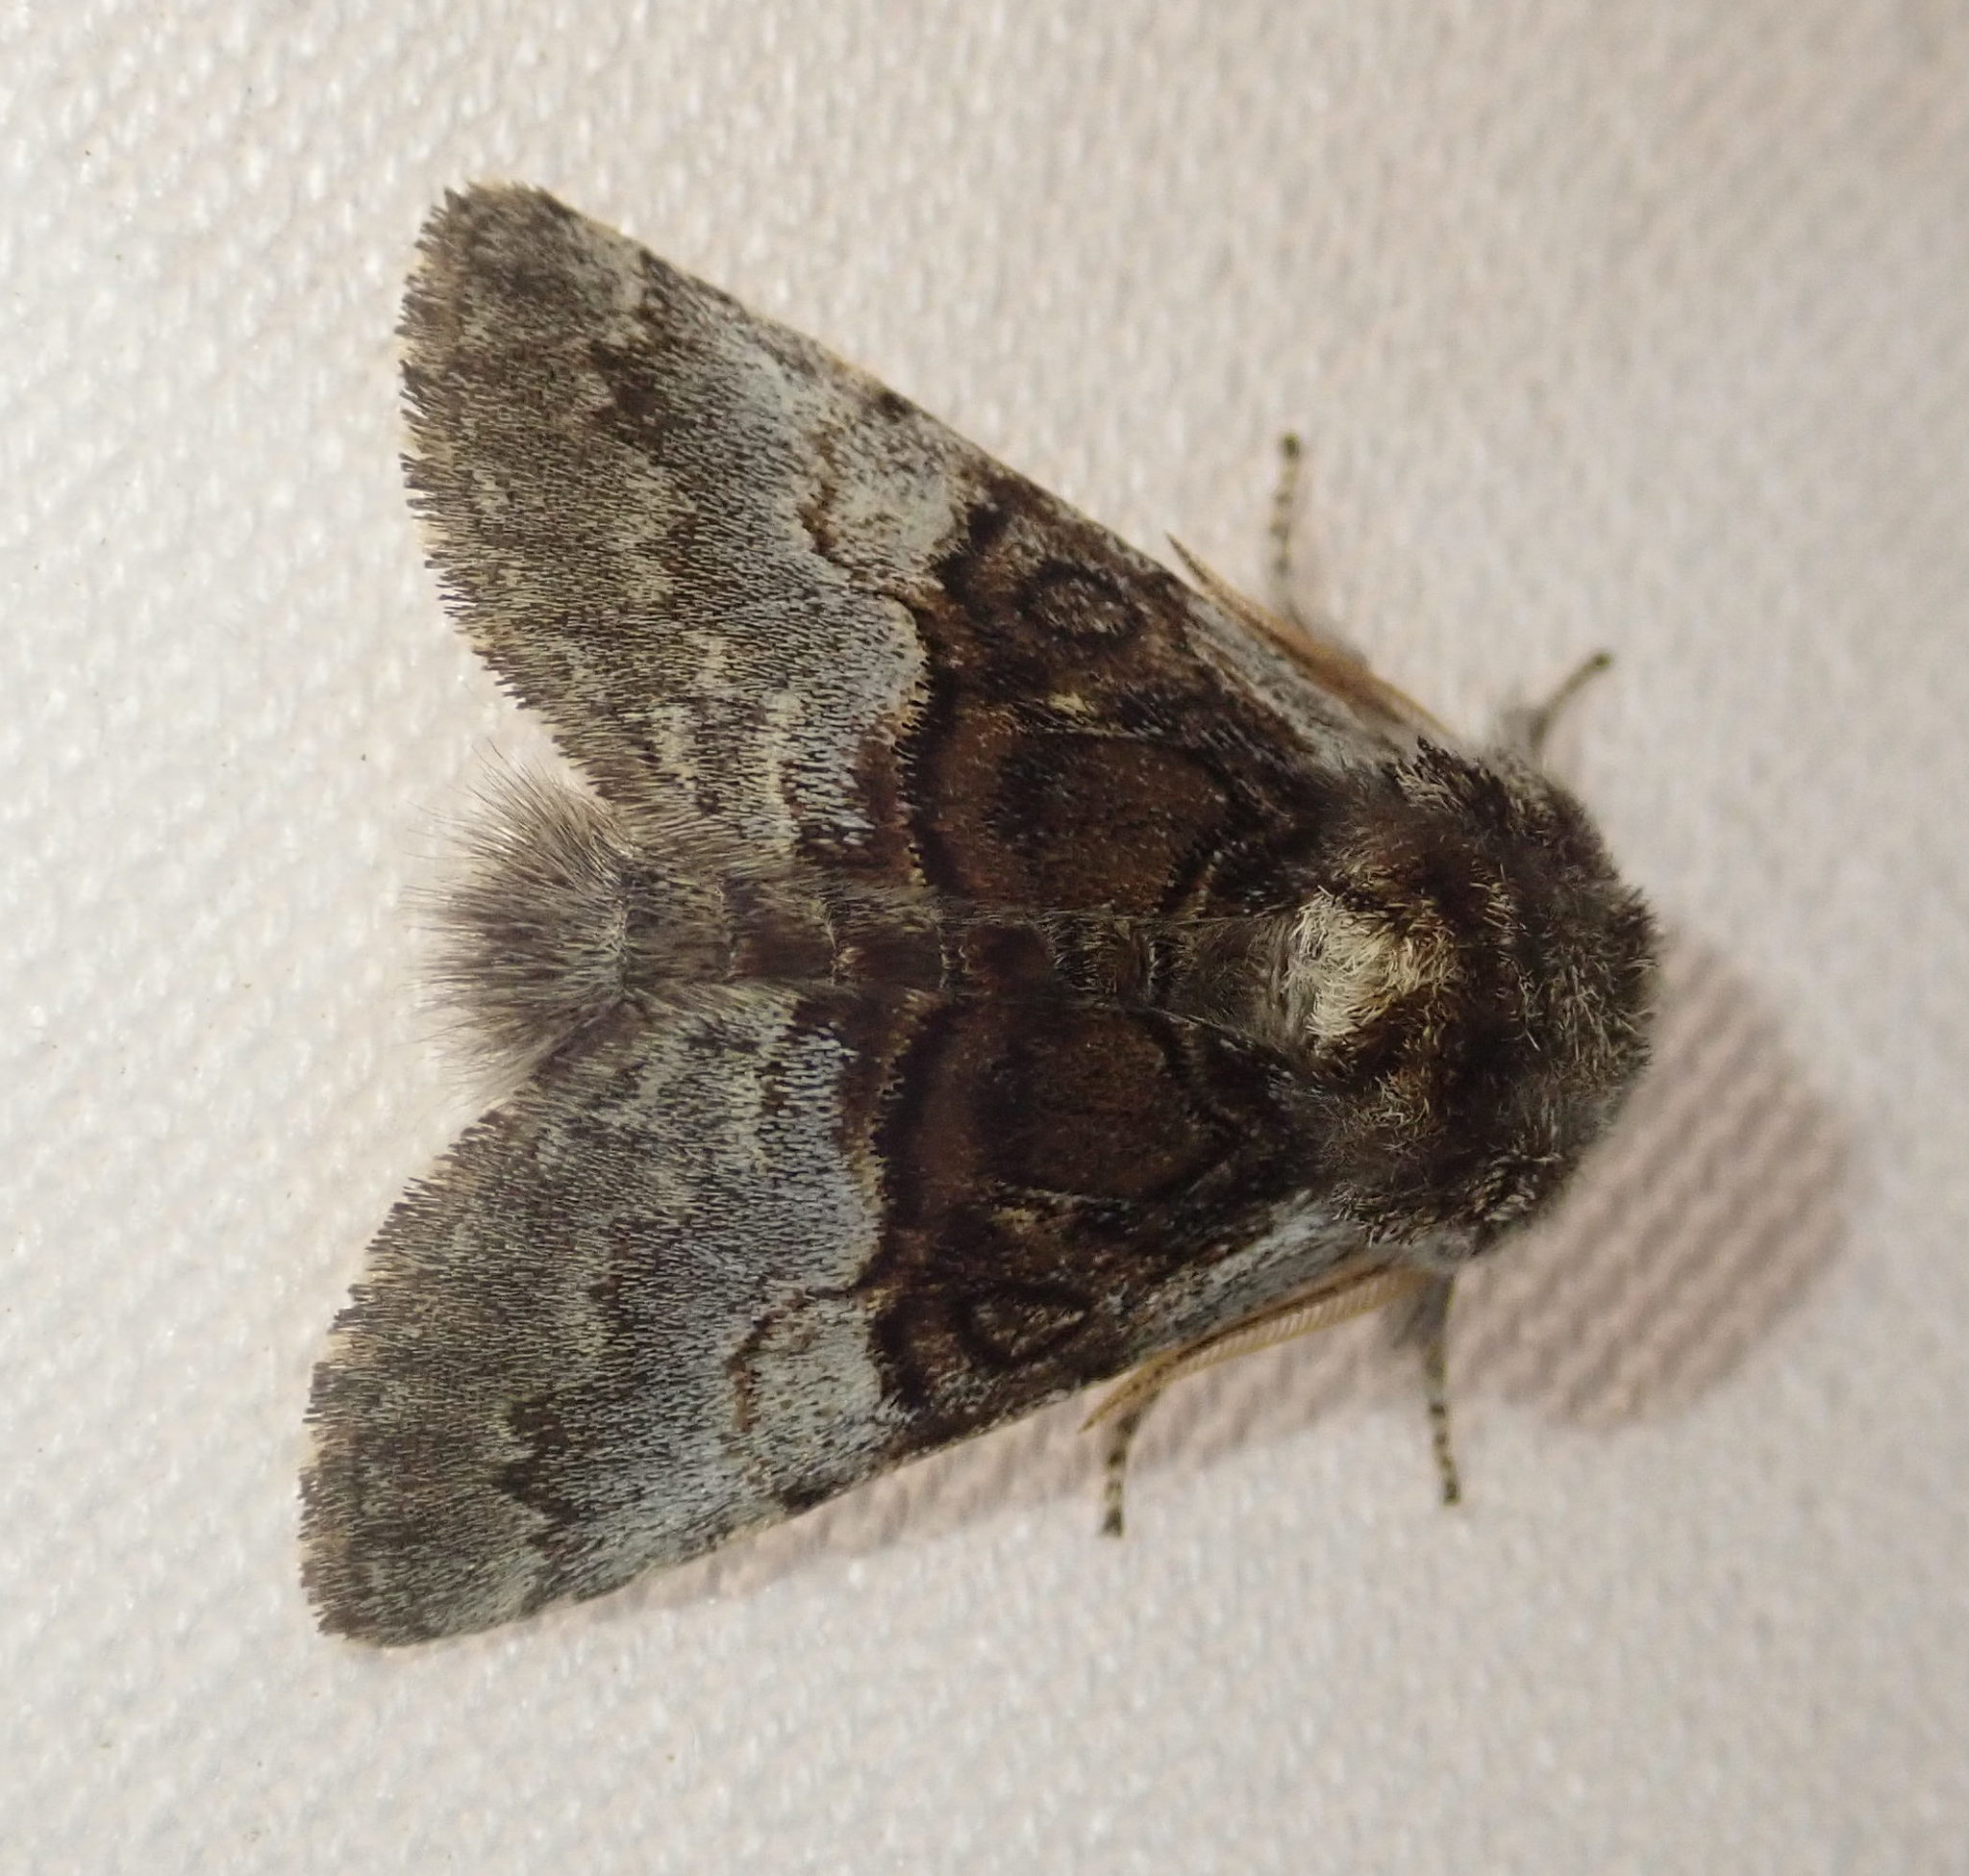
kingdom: Animalia
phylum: Arthropoda
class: Insecta
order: Lepidoptera
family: Noctuidae
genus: Colocasia
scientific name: Colocasia coryli
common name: Nut-tree tussock
